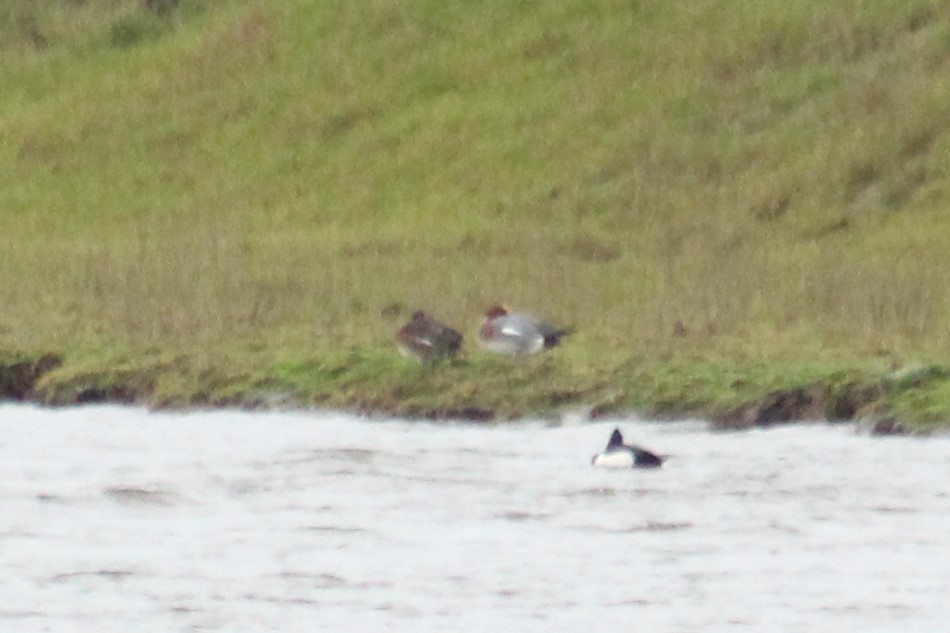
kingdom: Animalia
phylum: Chordata
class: Aves
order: Anseriformes
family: Anatidae
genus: Mareca
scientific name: Mareca penelope
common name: Eurasian wigeon
